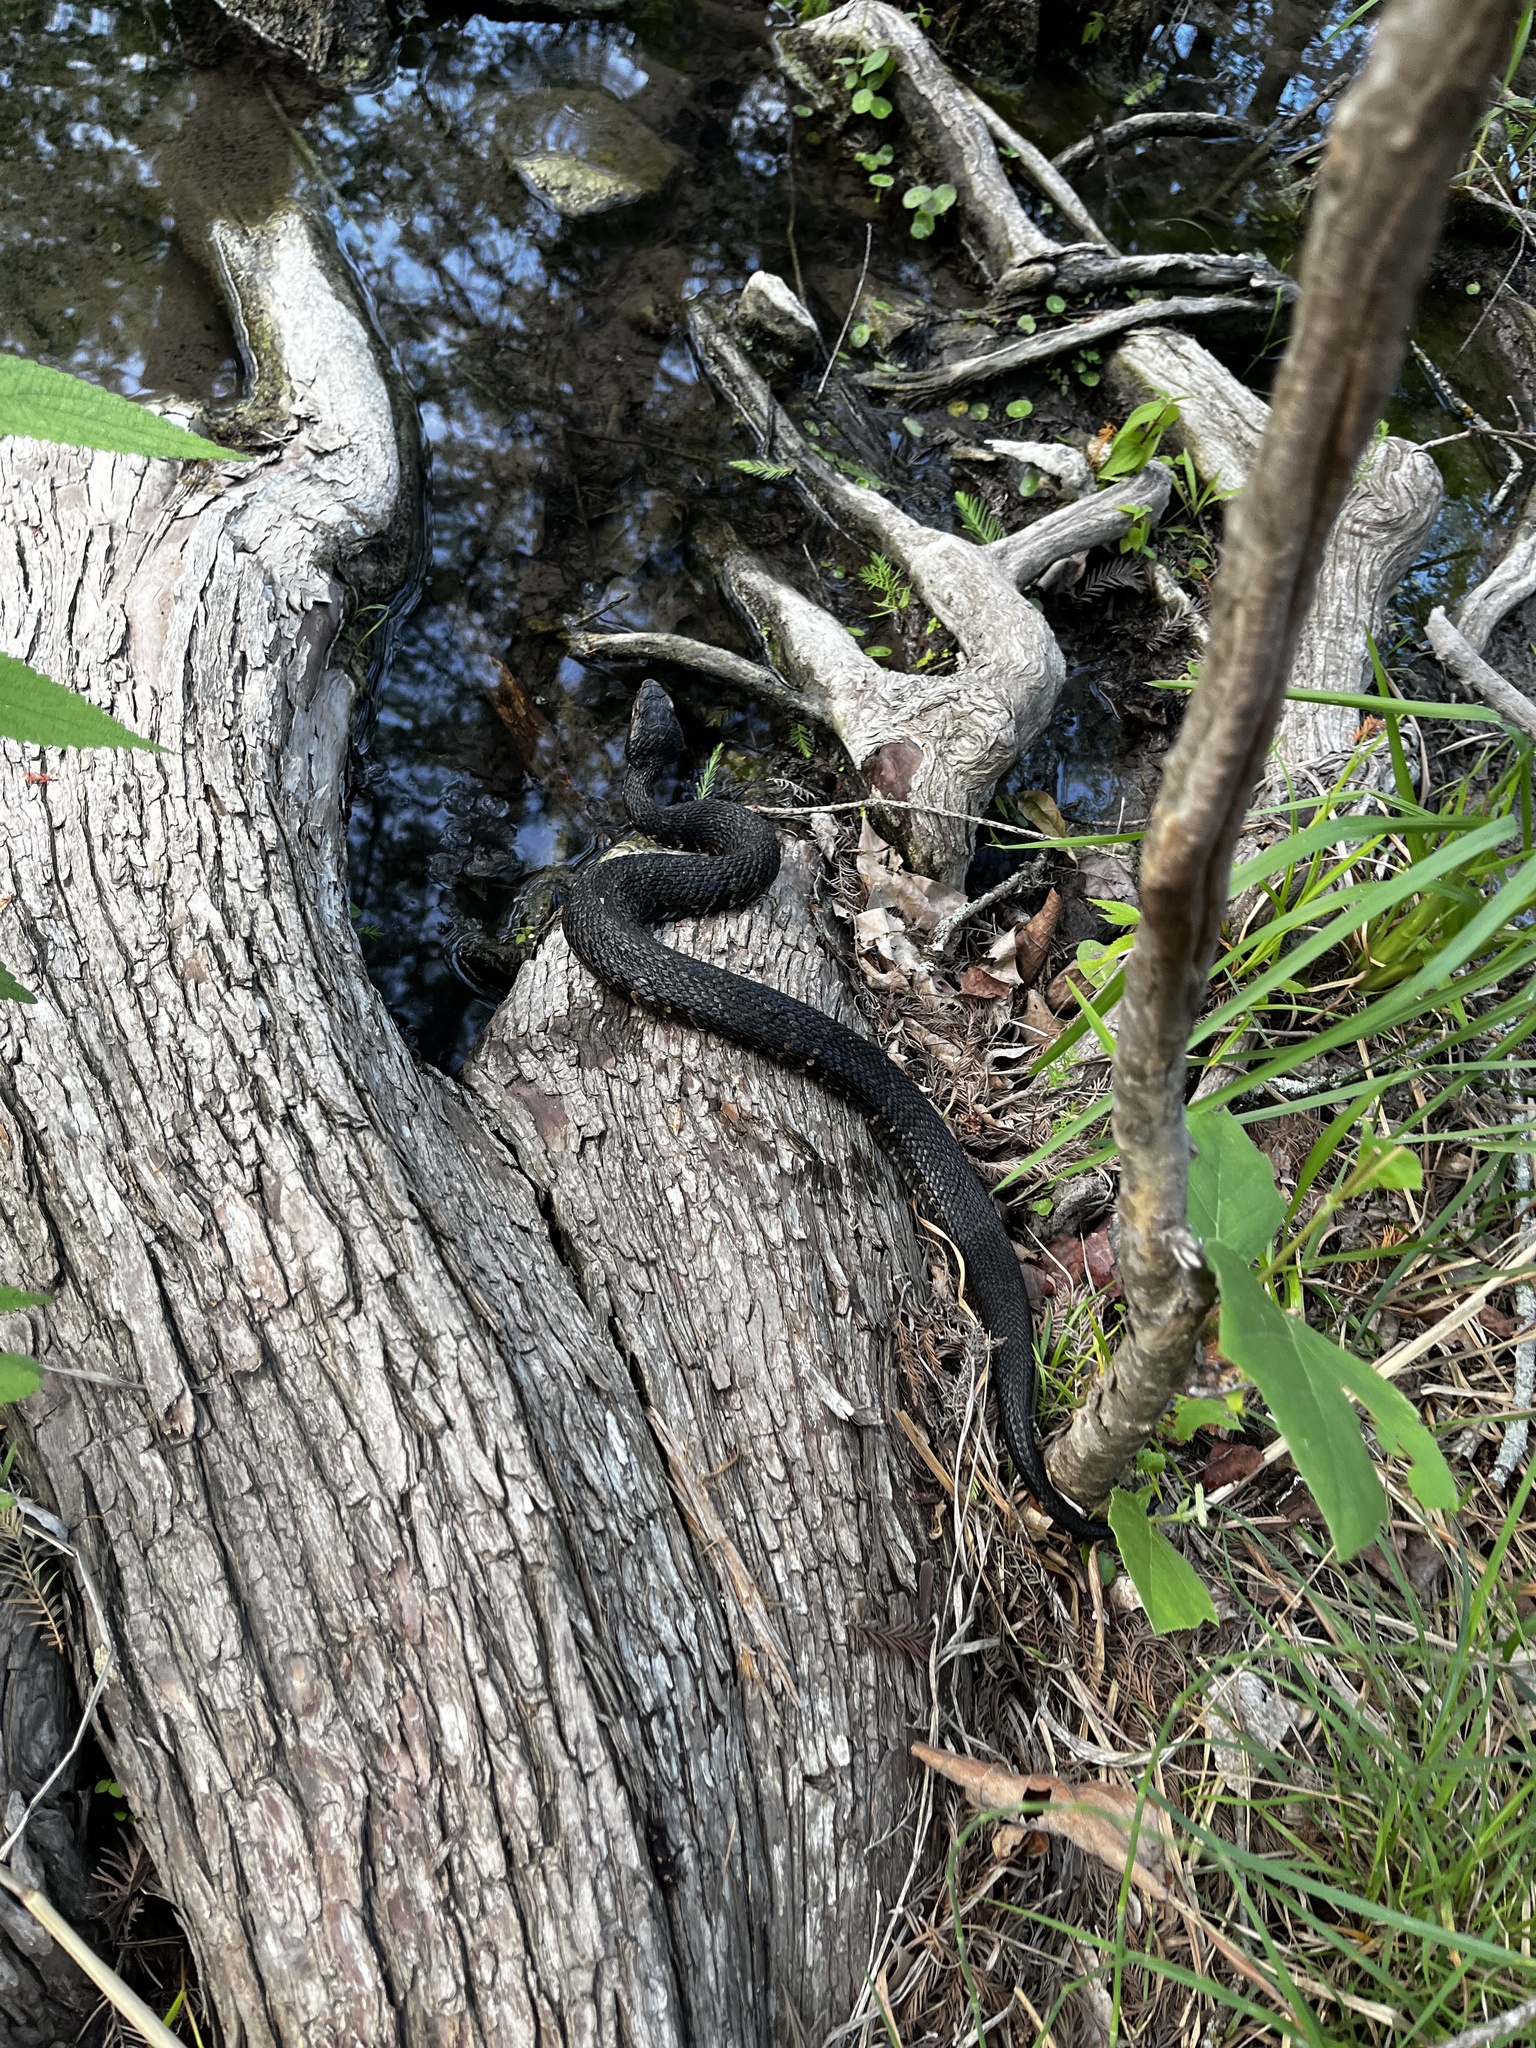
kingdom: Animalia
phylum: Chordata
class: Squamata
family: Viperidae
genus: Agkistrodon
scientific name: Agkistrodon piscivorus
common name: Cottonmouth
